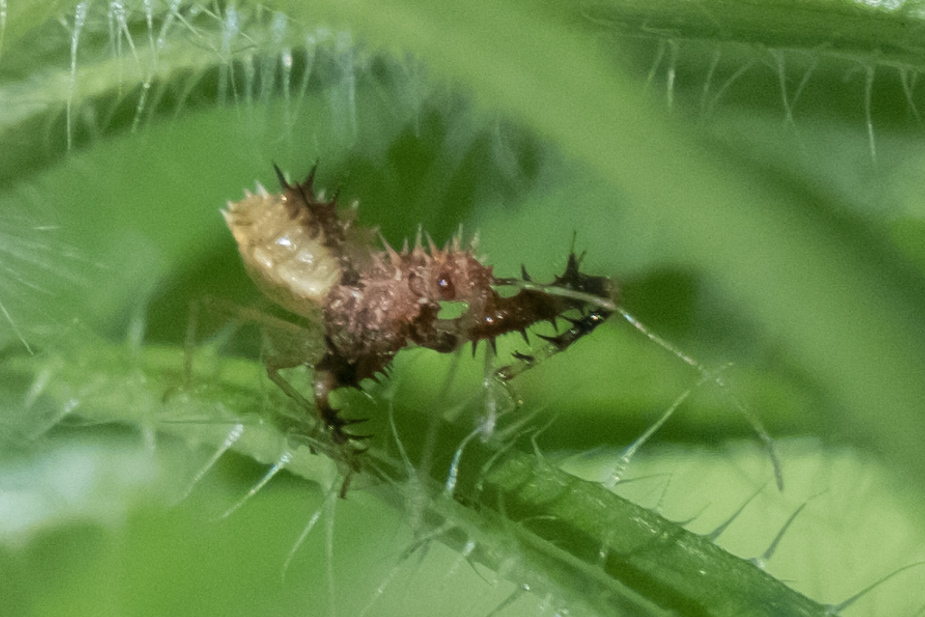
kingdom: Animalia
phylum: Arthropoda
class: Insecta
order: Hemiptera
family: Reduviidae
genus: Sinea
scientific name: Sinea diadema
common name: Spined assassin bug
